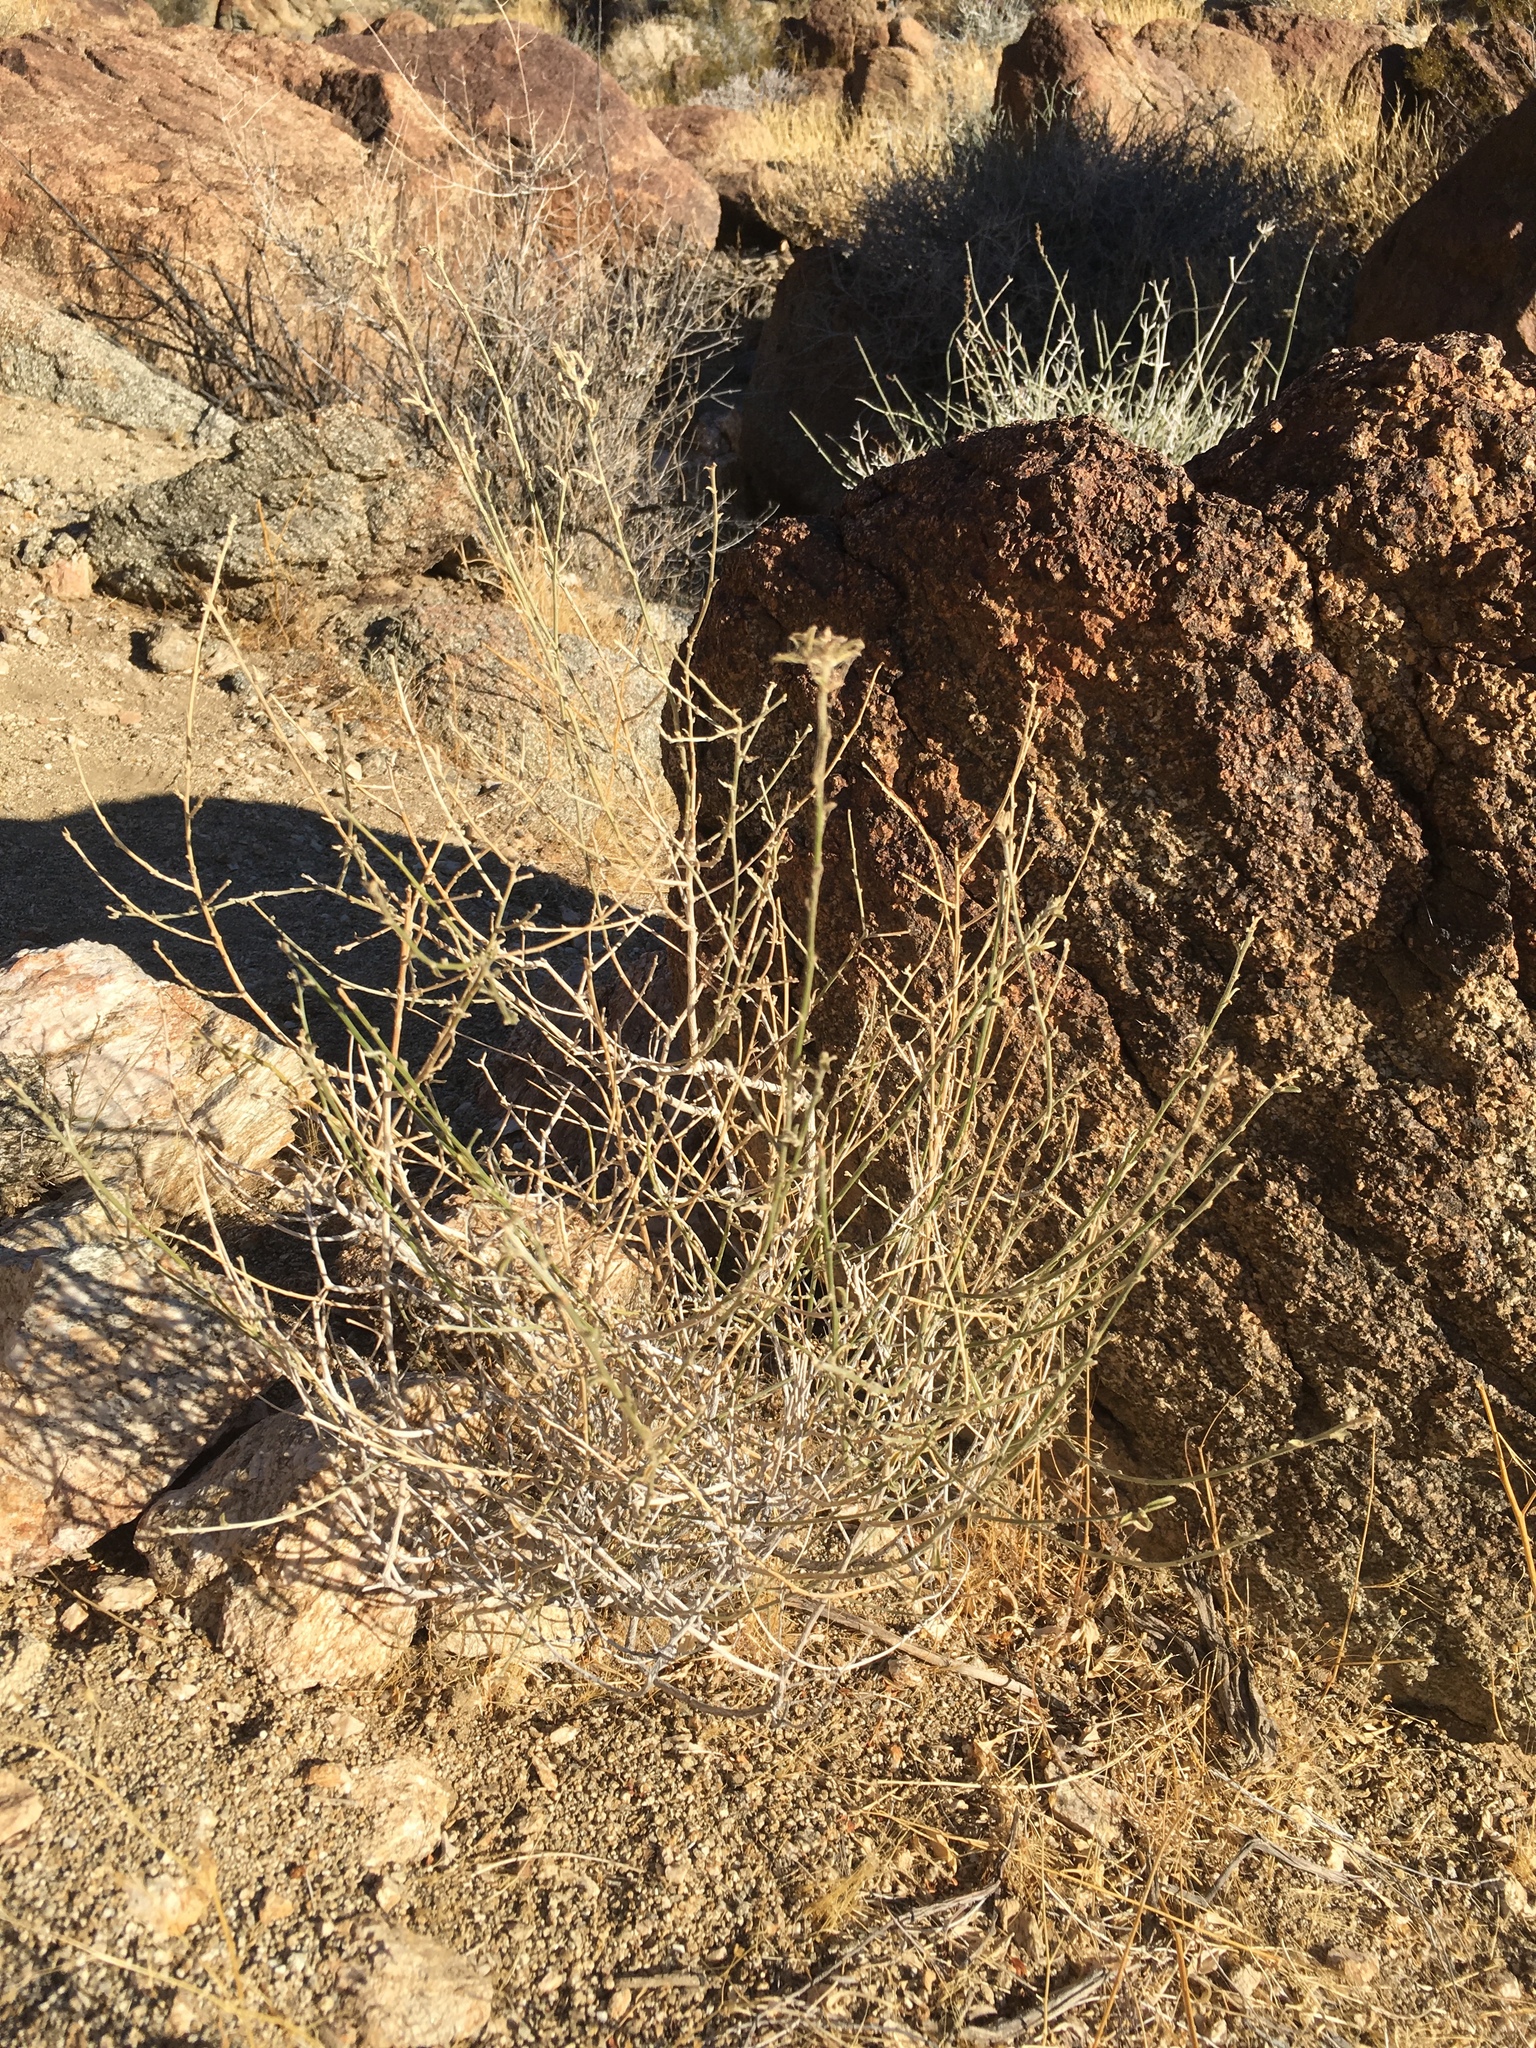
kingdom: Plantae
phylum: Tracheophyta
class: Magnoliopsida
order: Malpighiales
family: Euphorbiaceae
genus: Ditaxis
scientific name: Ditaxis lanceolata
